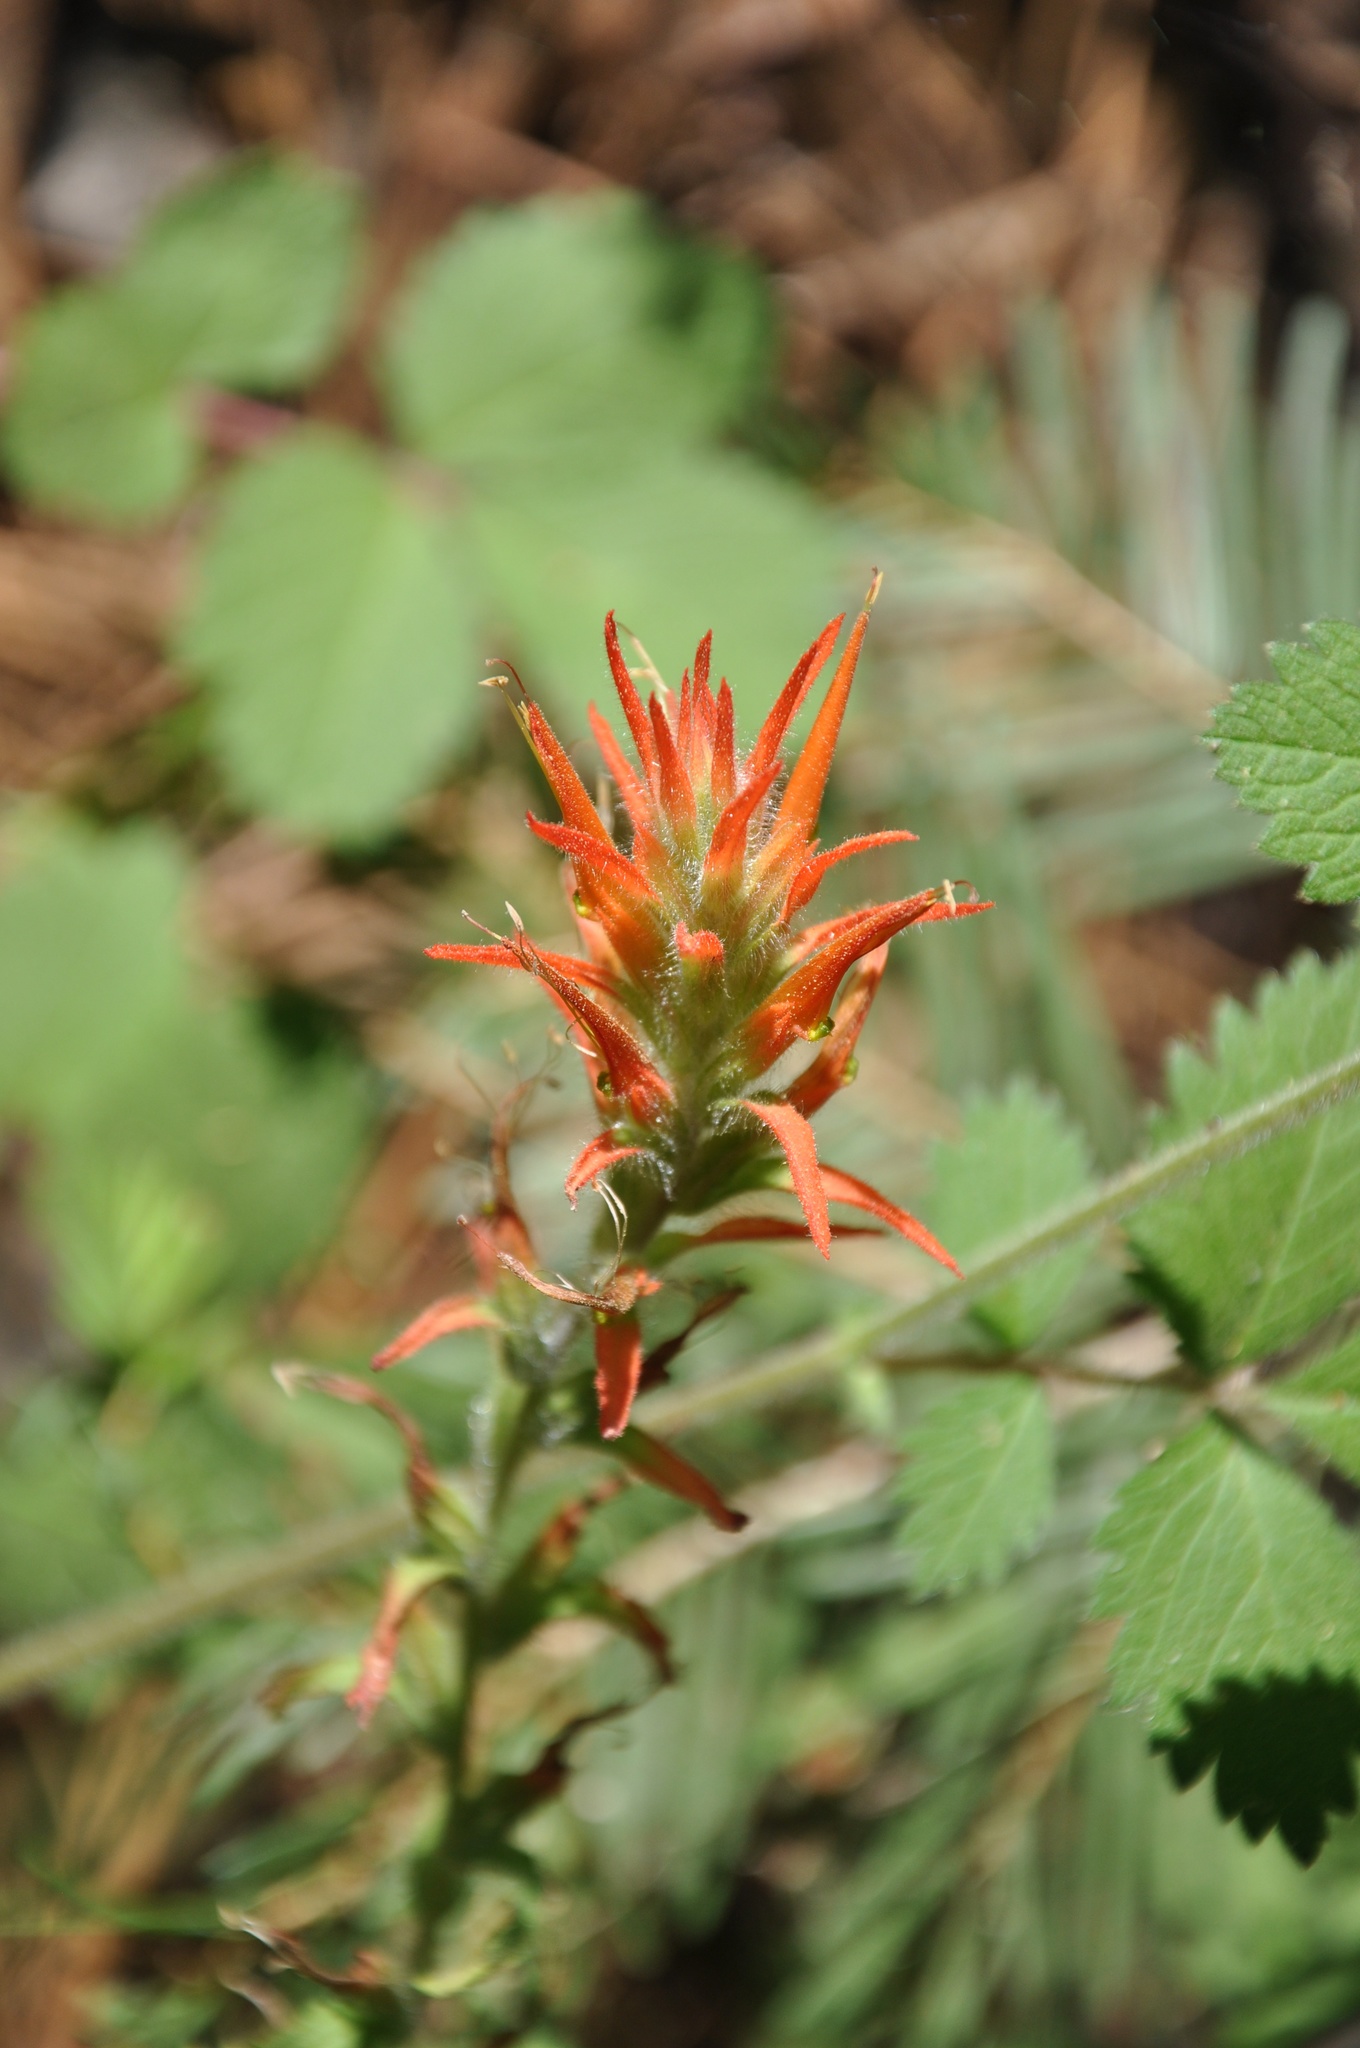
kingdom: Plantae
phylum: Tracheophyta
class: Magnoliopsida
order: Lamiales
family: Orobanchaceae
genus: Castilleja
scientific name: Castilleja disticha
